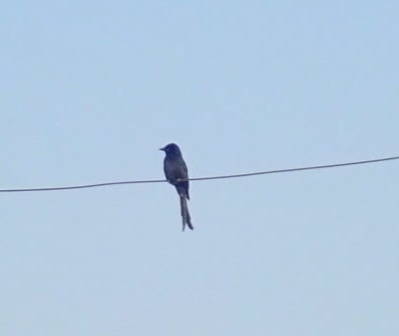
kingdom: Animalia
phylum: Chordata
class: Aves
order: Passeriformes
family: Dicruridae
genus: Dicrurus
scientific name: Dicrurus macrocercus
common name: Black drongo
